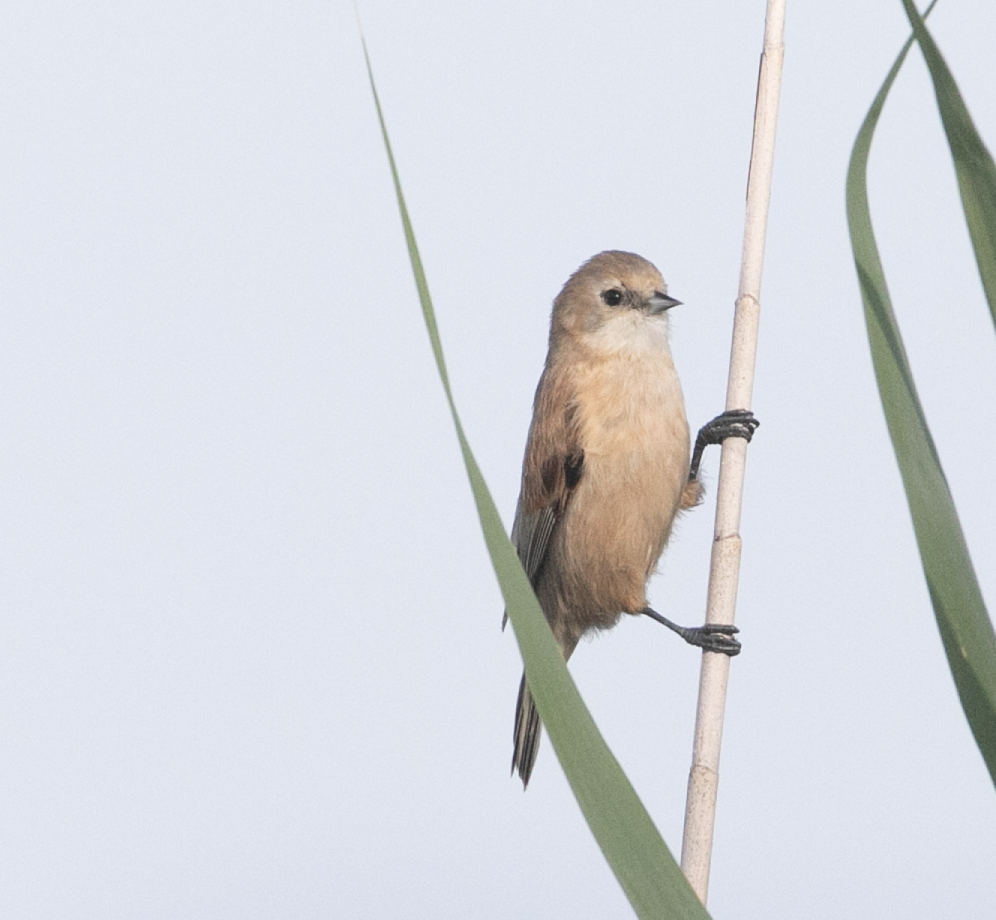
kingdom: Animalia
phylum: Chordata
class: Aves
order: Passeriformes
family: Remizidae
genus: Remiz
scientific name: Remiz pendulinus
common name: Eurasian penduline tit
